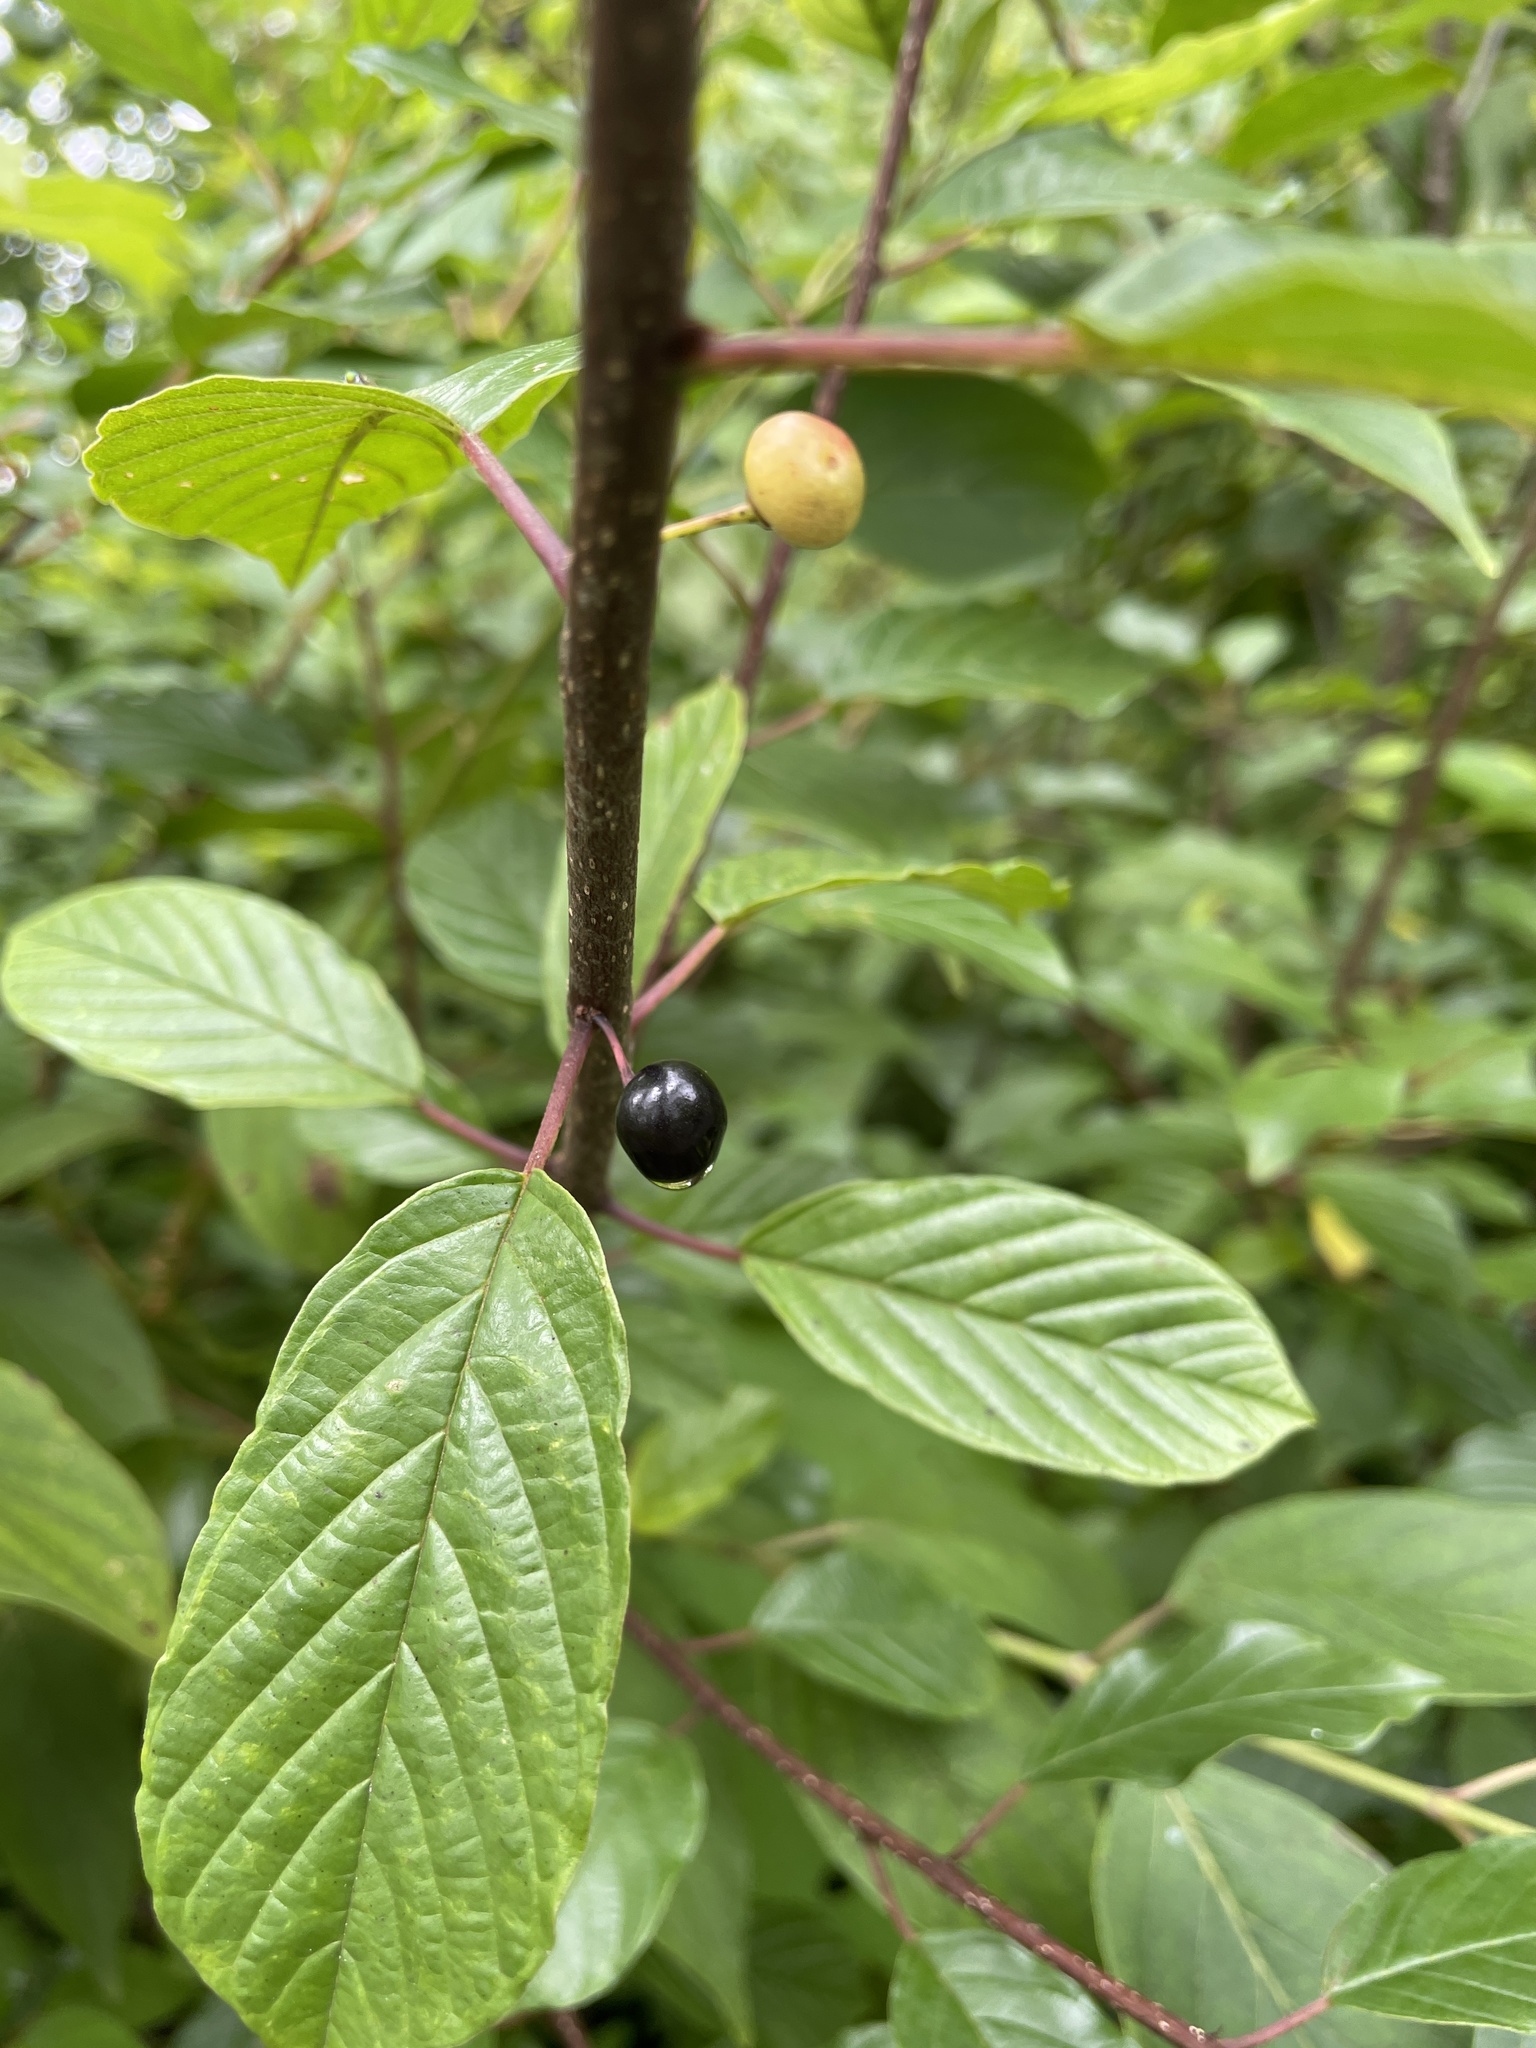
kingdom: Plantae
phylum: Tracheophyta
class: Magnoliopsida
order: Rosales
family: Rhamnaceae
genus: Frangula
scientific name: Frangula alnus
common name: Alder buckthorn
